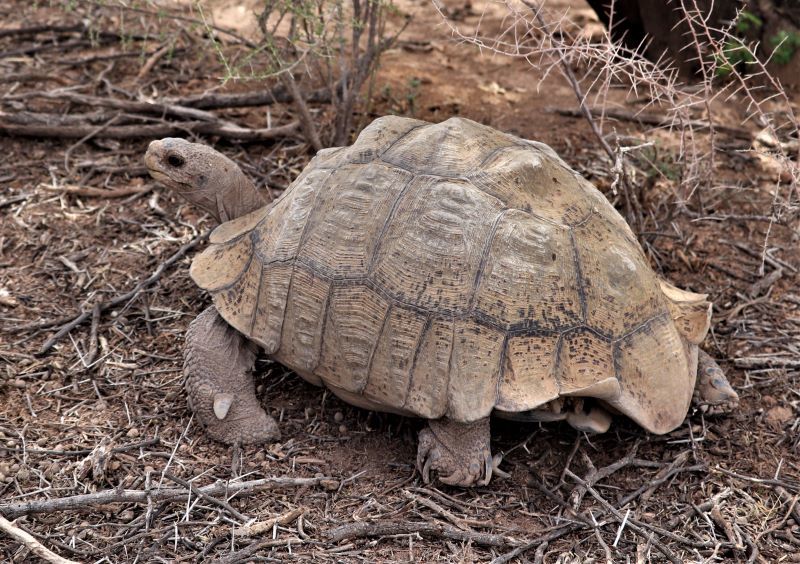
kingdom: Animalia
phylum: Chordata
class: Testudines
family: Testudinidae
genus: Stigmochelys
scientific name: Stigmochelys pardalis
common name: Leopard tortoise
